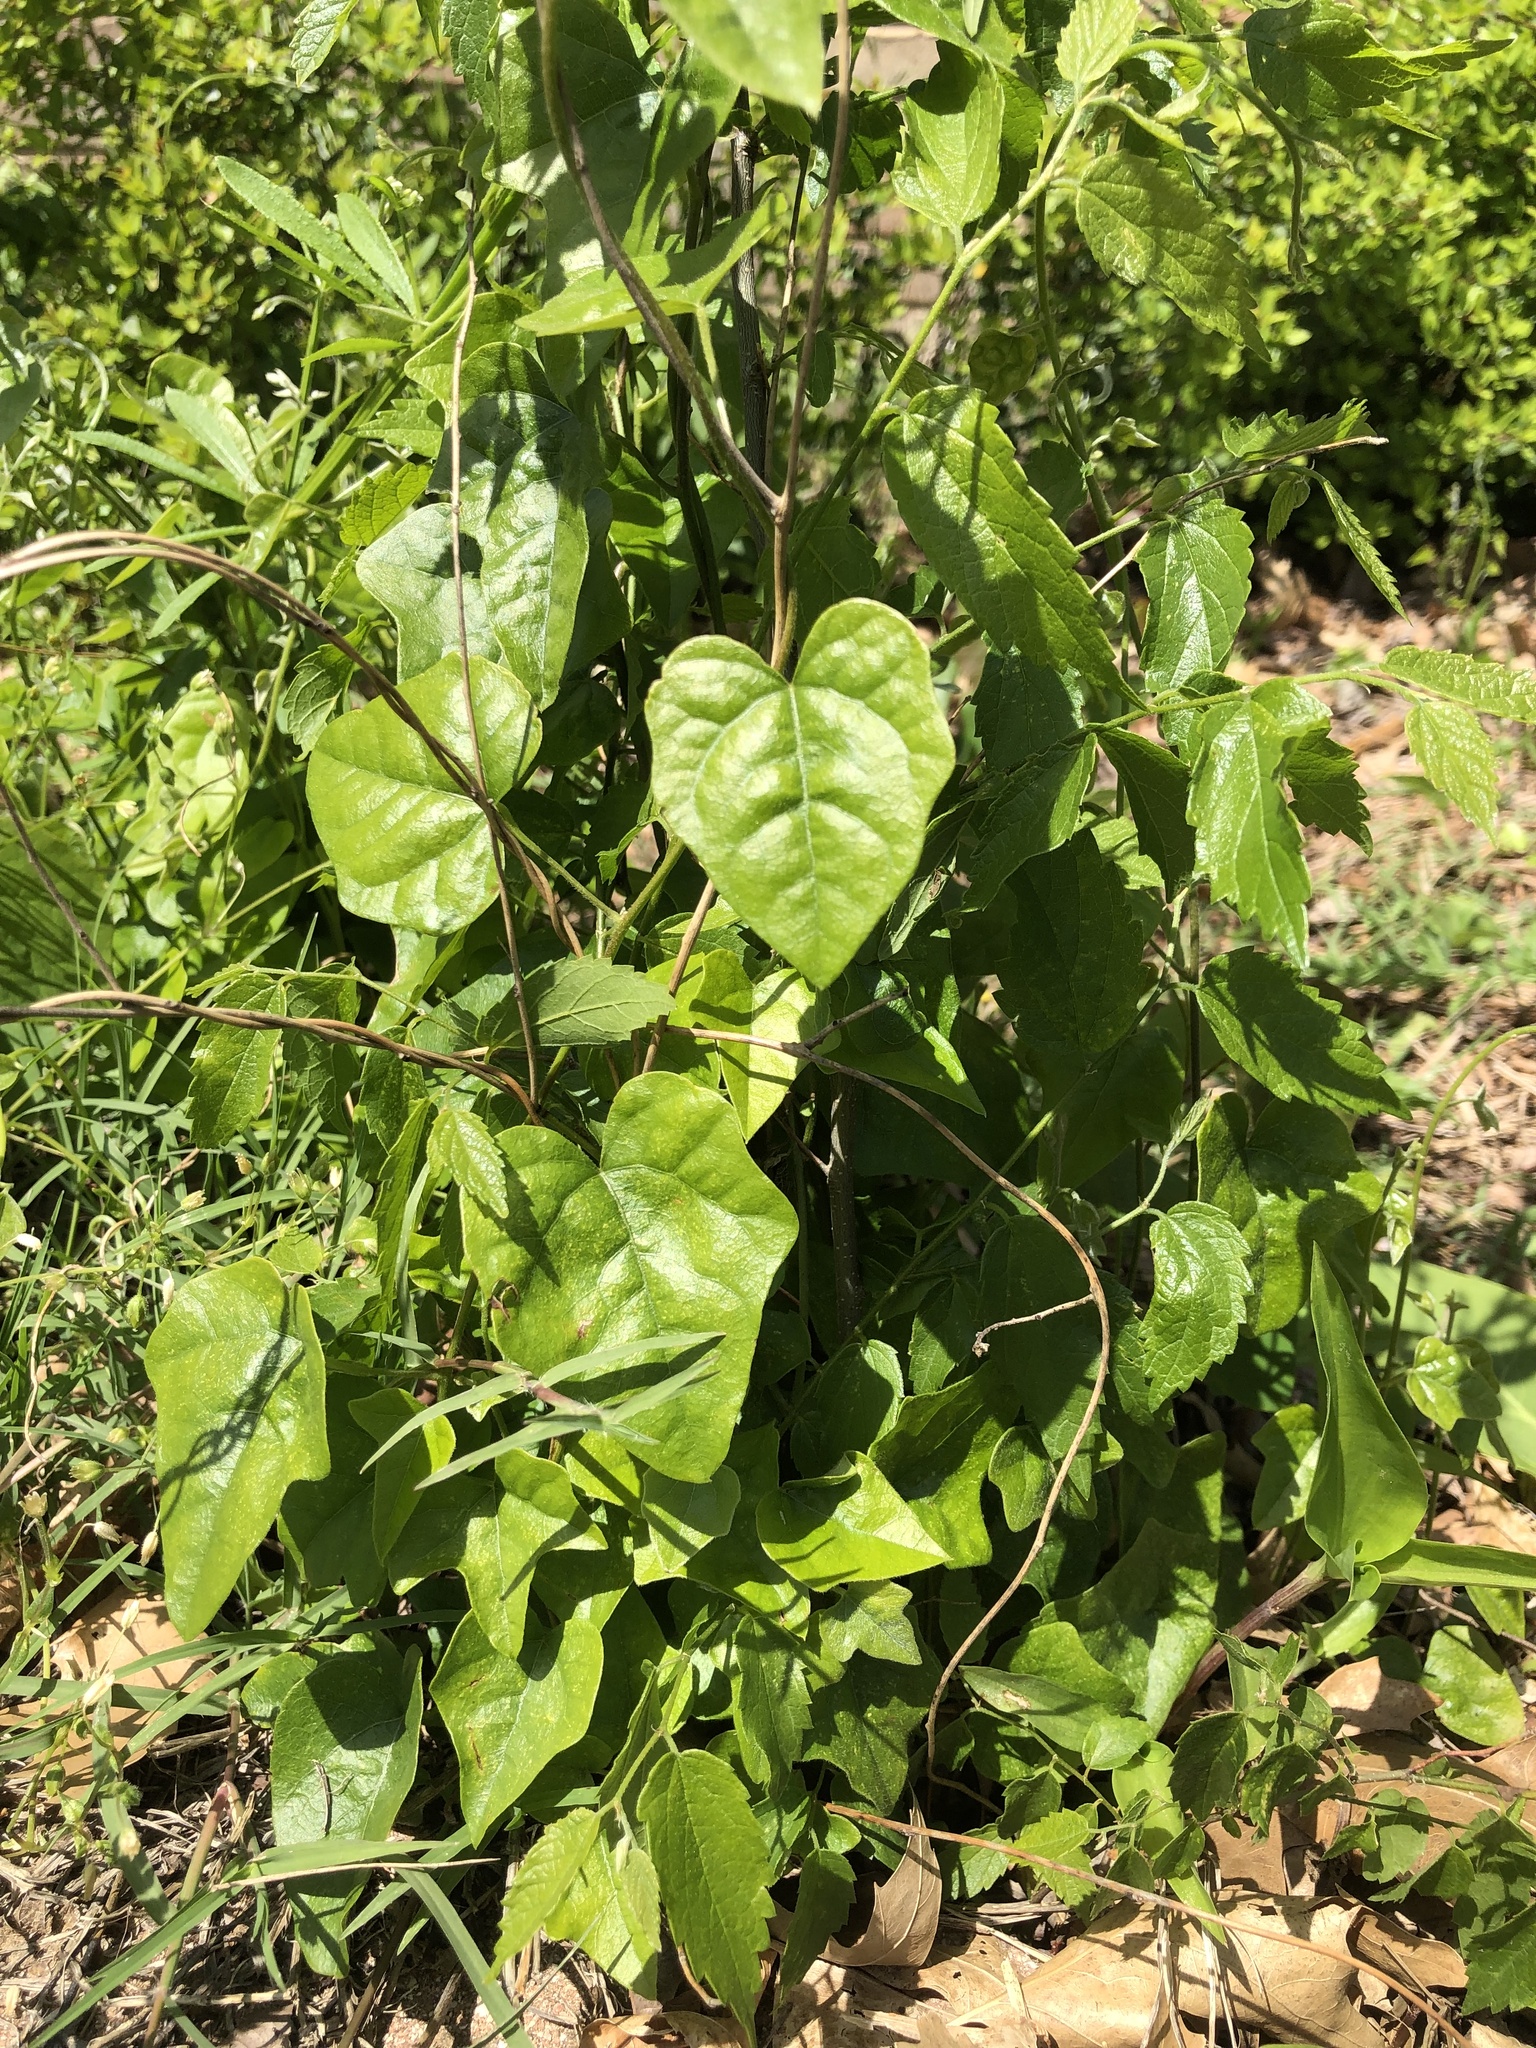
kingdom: Plantae
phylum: Tracheophyta
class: Magnoliopsida
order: Ranunculales
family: Menispermaceae
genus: Cocculus
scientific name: Cocculus carolinus
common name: Carolina moonseed
